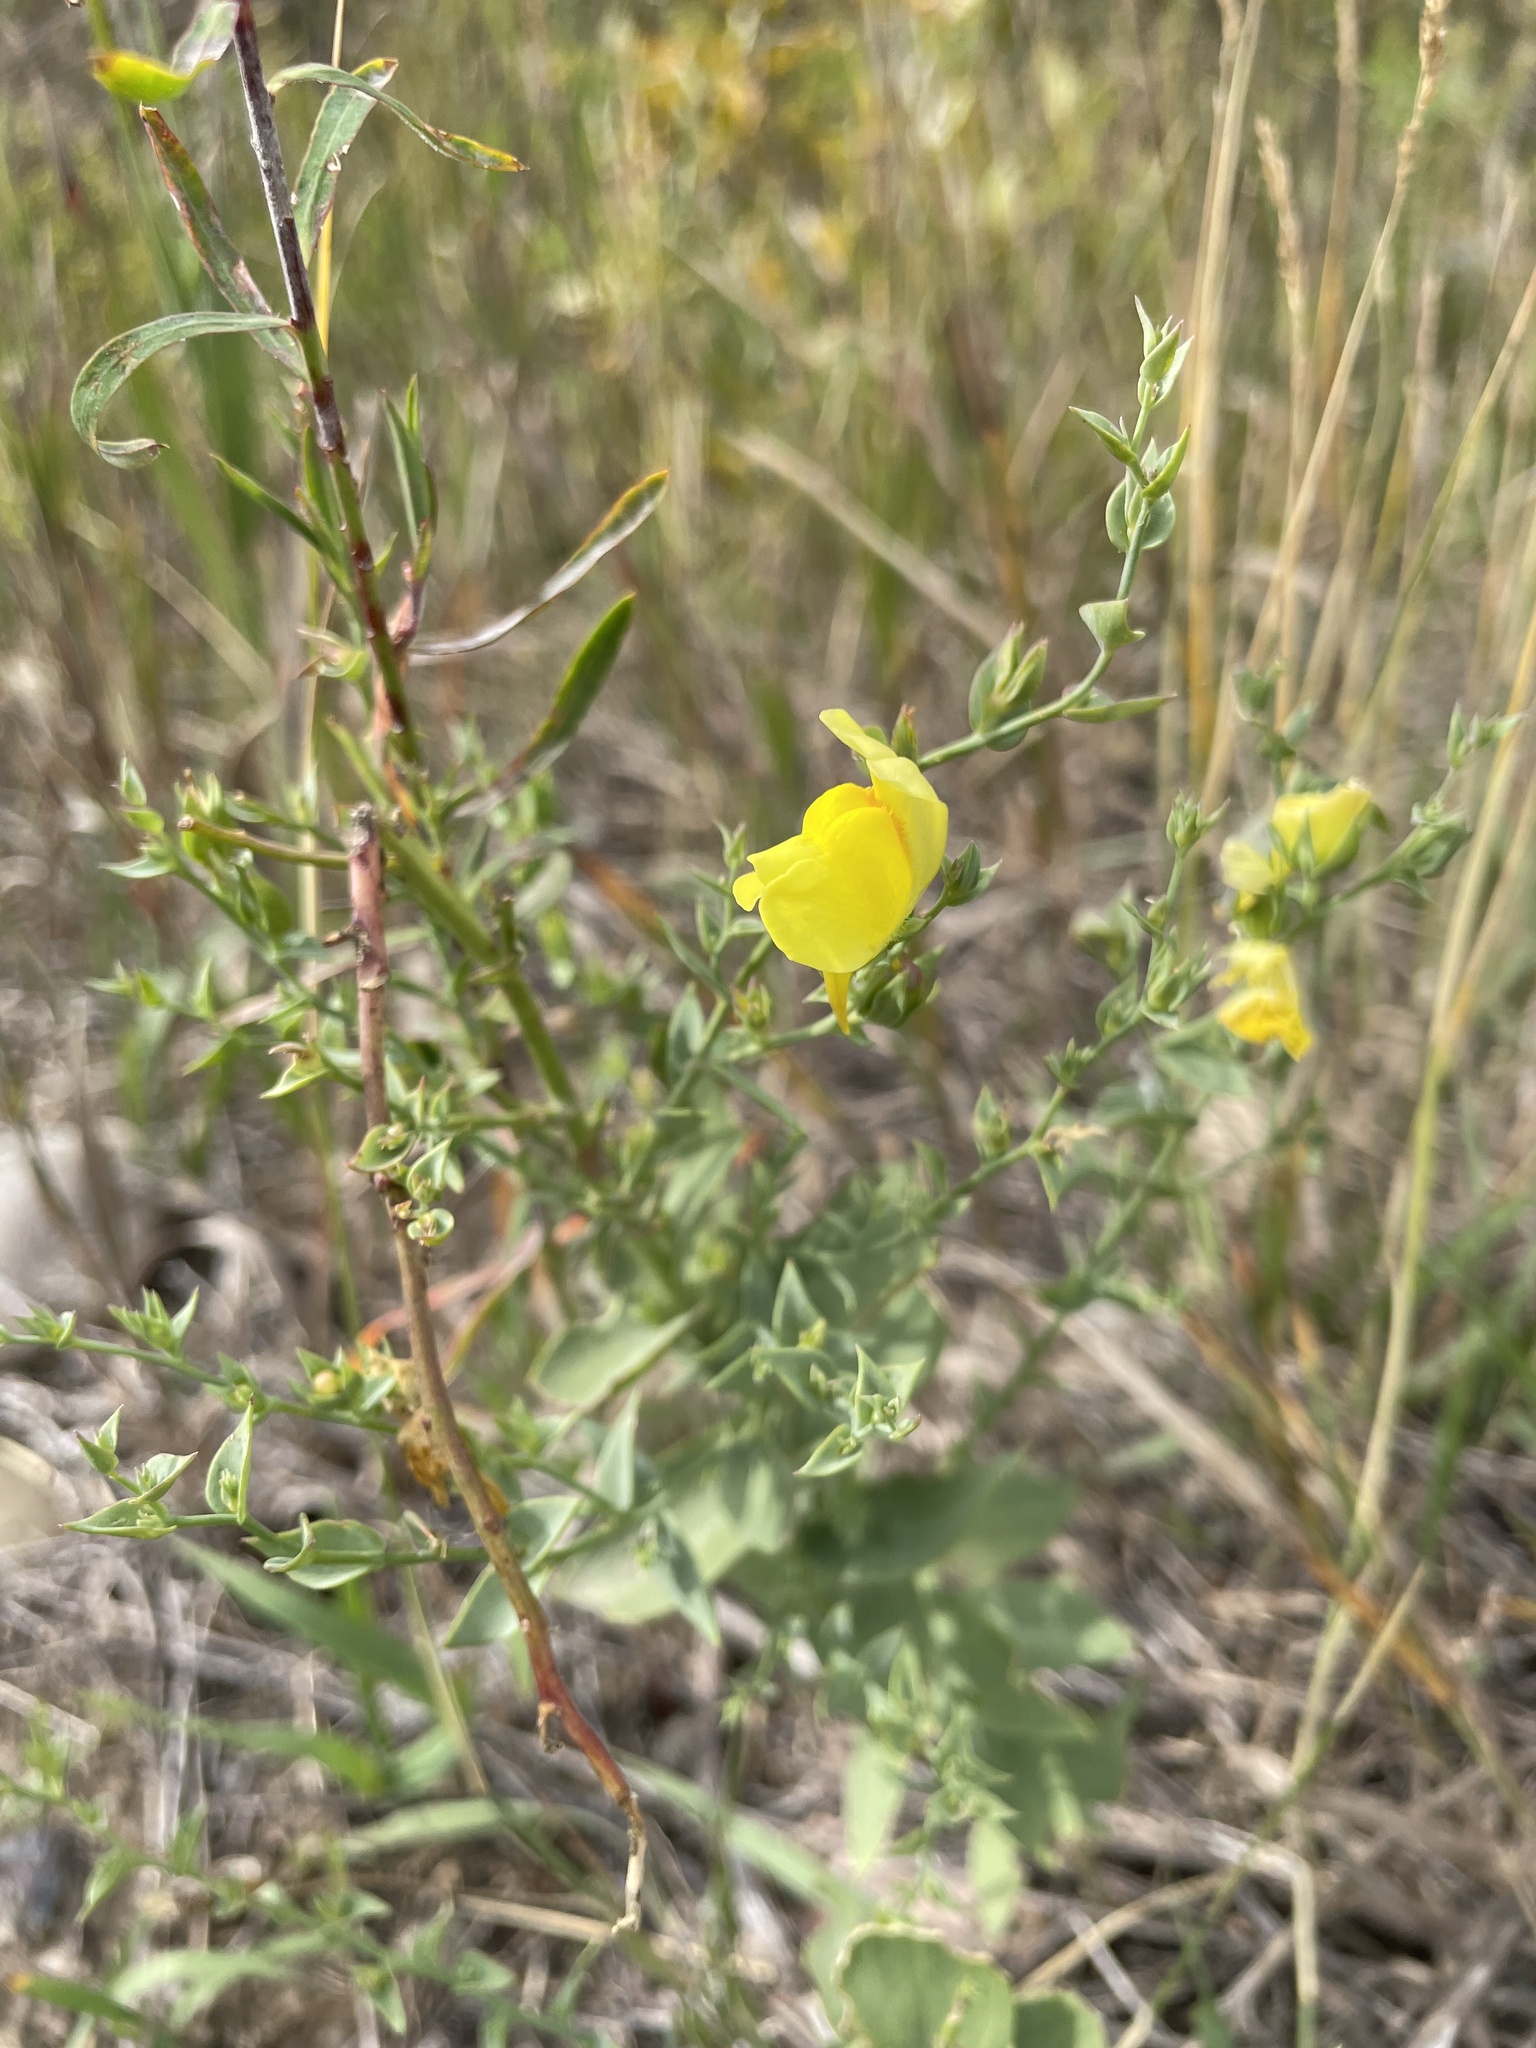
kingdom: Plantae
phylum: Tracheophyta
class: Magnoliopsida
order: Lamiales
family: Plantaginaceae
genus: Linaria
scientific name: Linaria dalmatica
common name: Dalmatian toadflax
